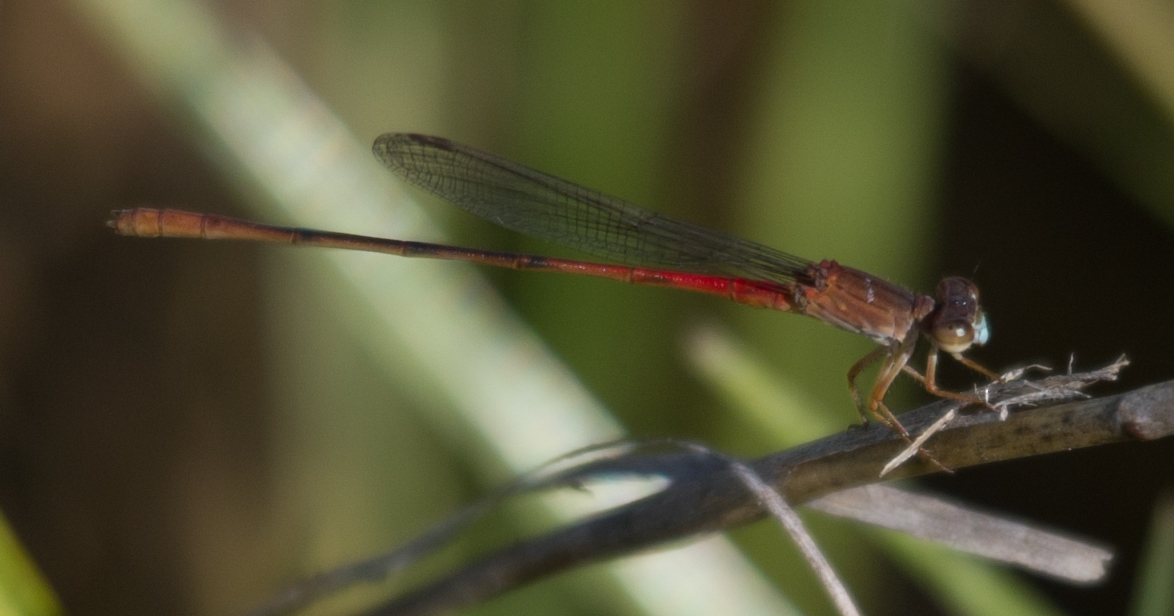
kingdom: Animalia
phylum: Arthropoda
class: Insecta
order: Odonata
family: Coenagrionidae
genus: Ceriagrion
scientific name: Ceriagrion katamborae
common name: White-faced waxtail
